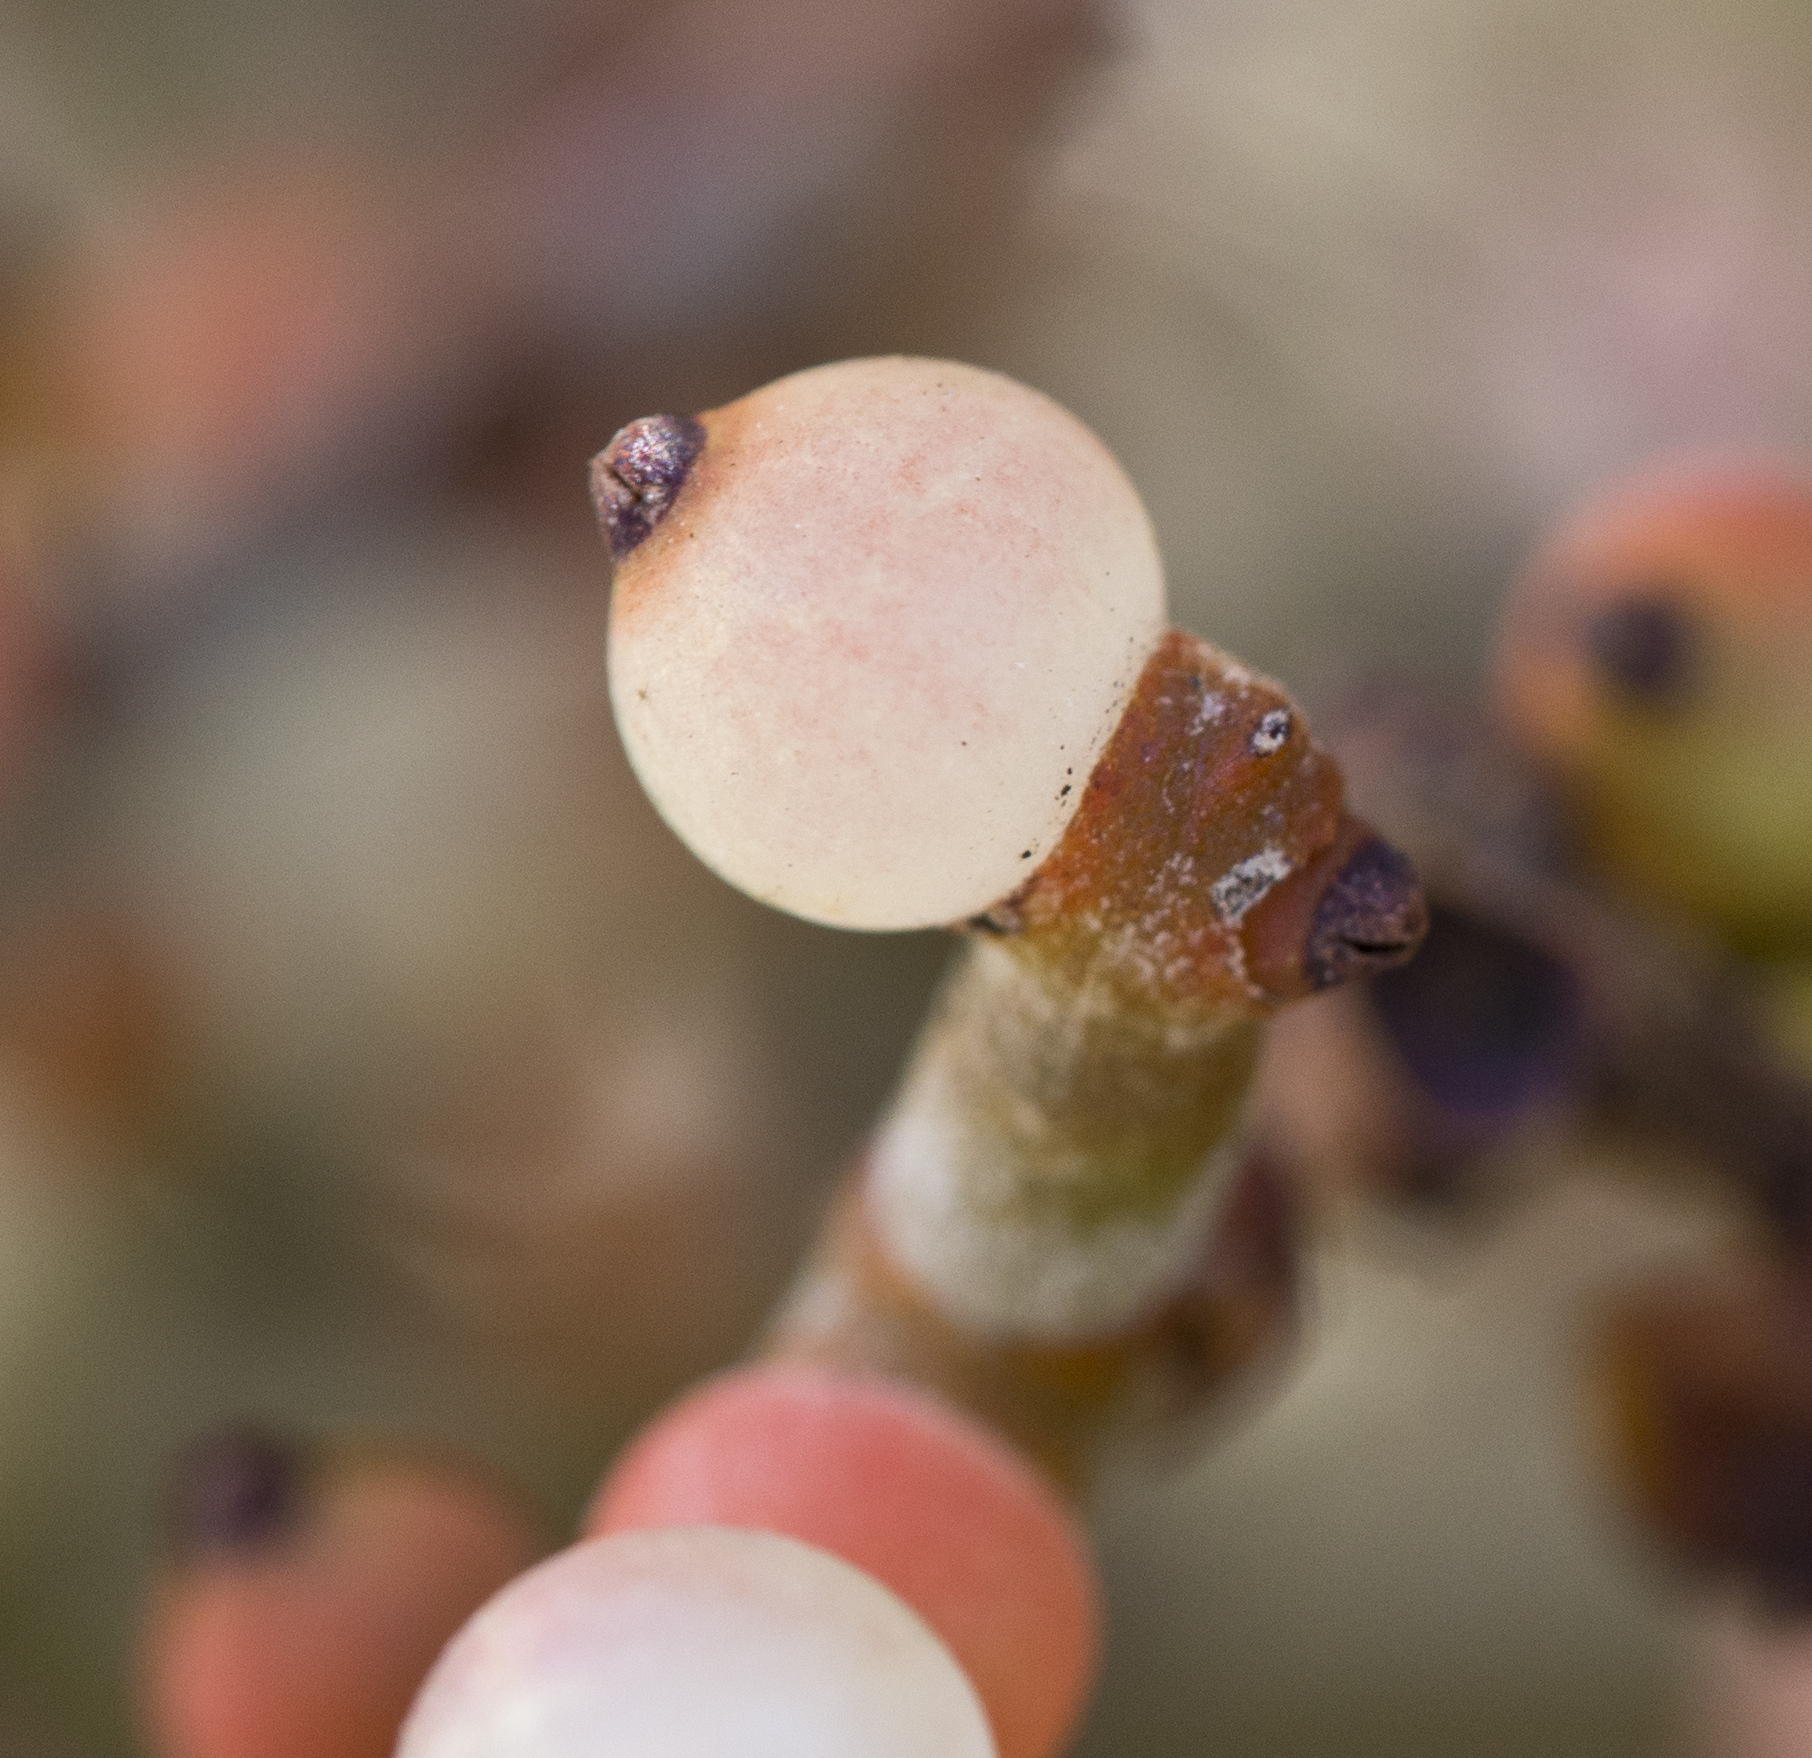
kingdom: Plantae
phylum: Tracheophyta
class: Magnoliopsida
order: Santalales
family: Viscaceae
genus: Phoradendron
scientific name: Phoradendron californicum
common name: Acacia mistletoe
